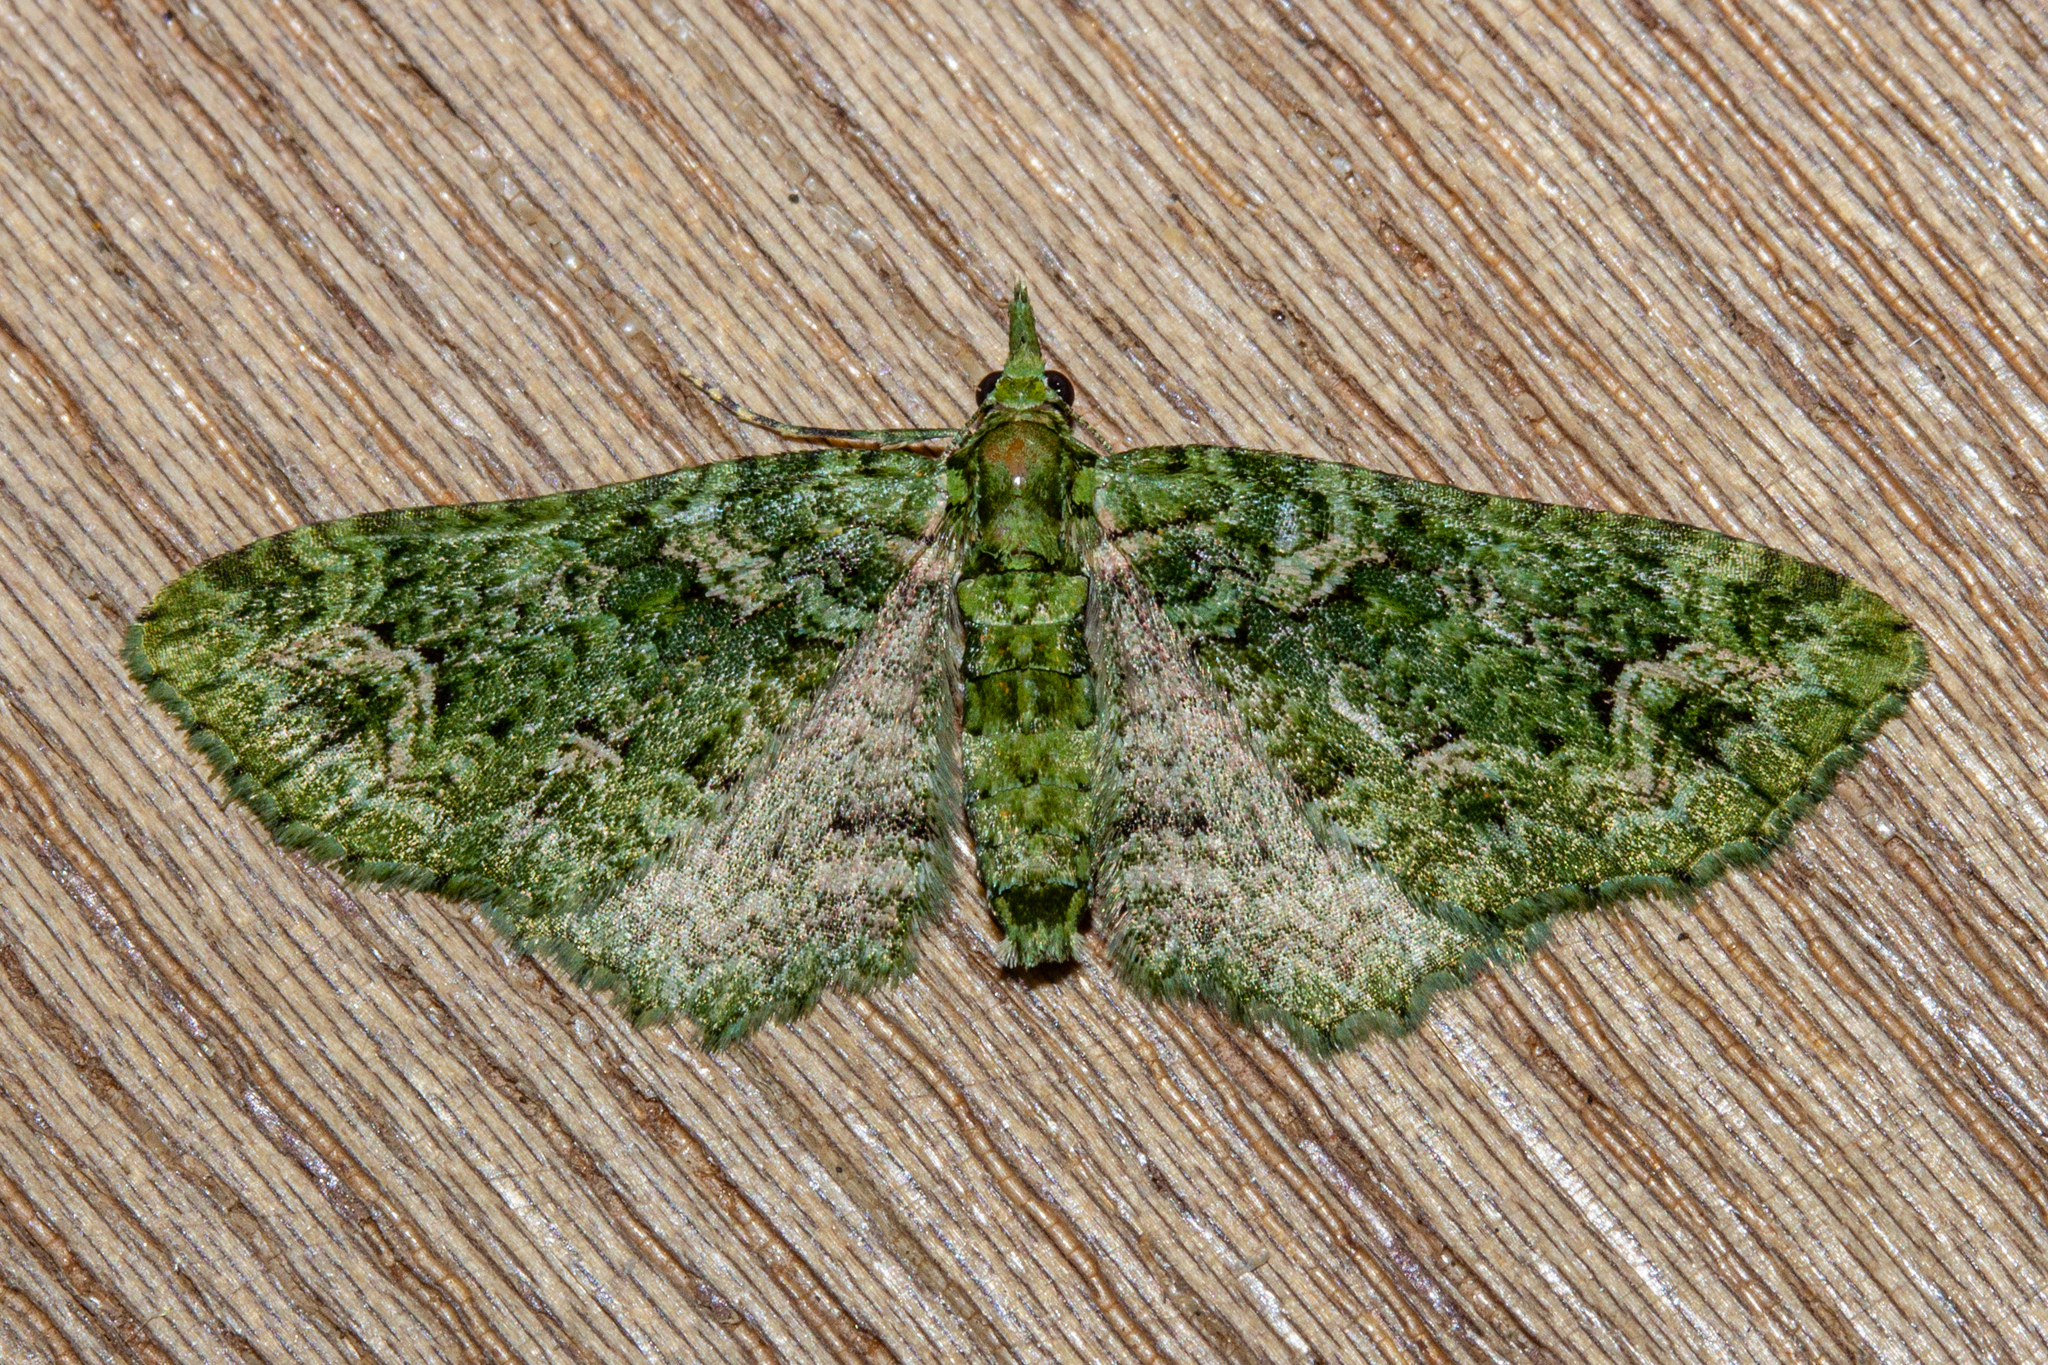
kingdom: Animalia
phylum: Arthropoda
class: Insecta
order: Lepidoptera
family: Geometridae
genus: Pasiphila
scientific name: Pasiphila muscosata
